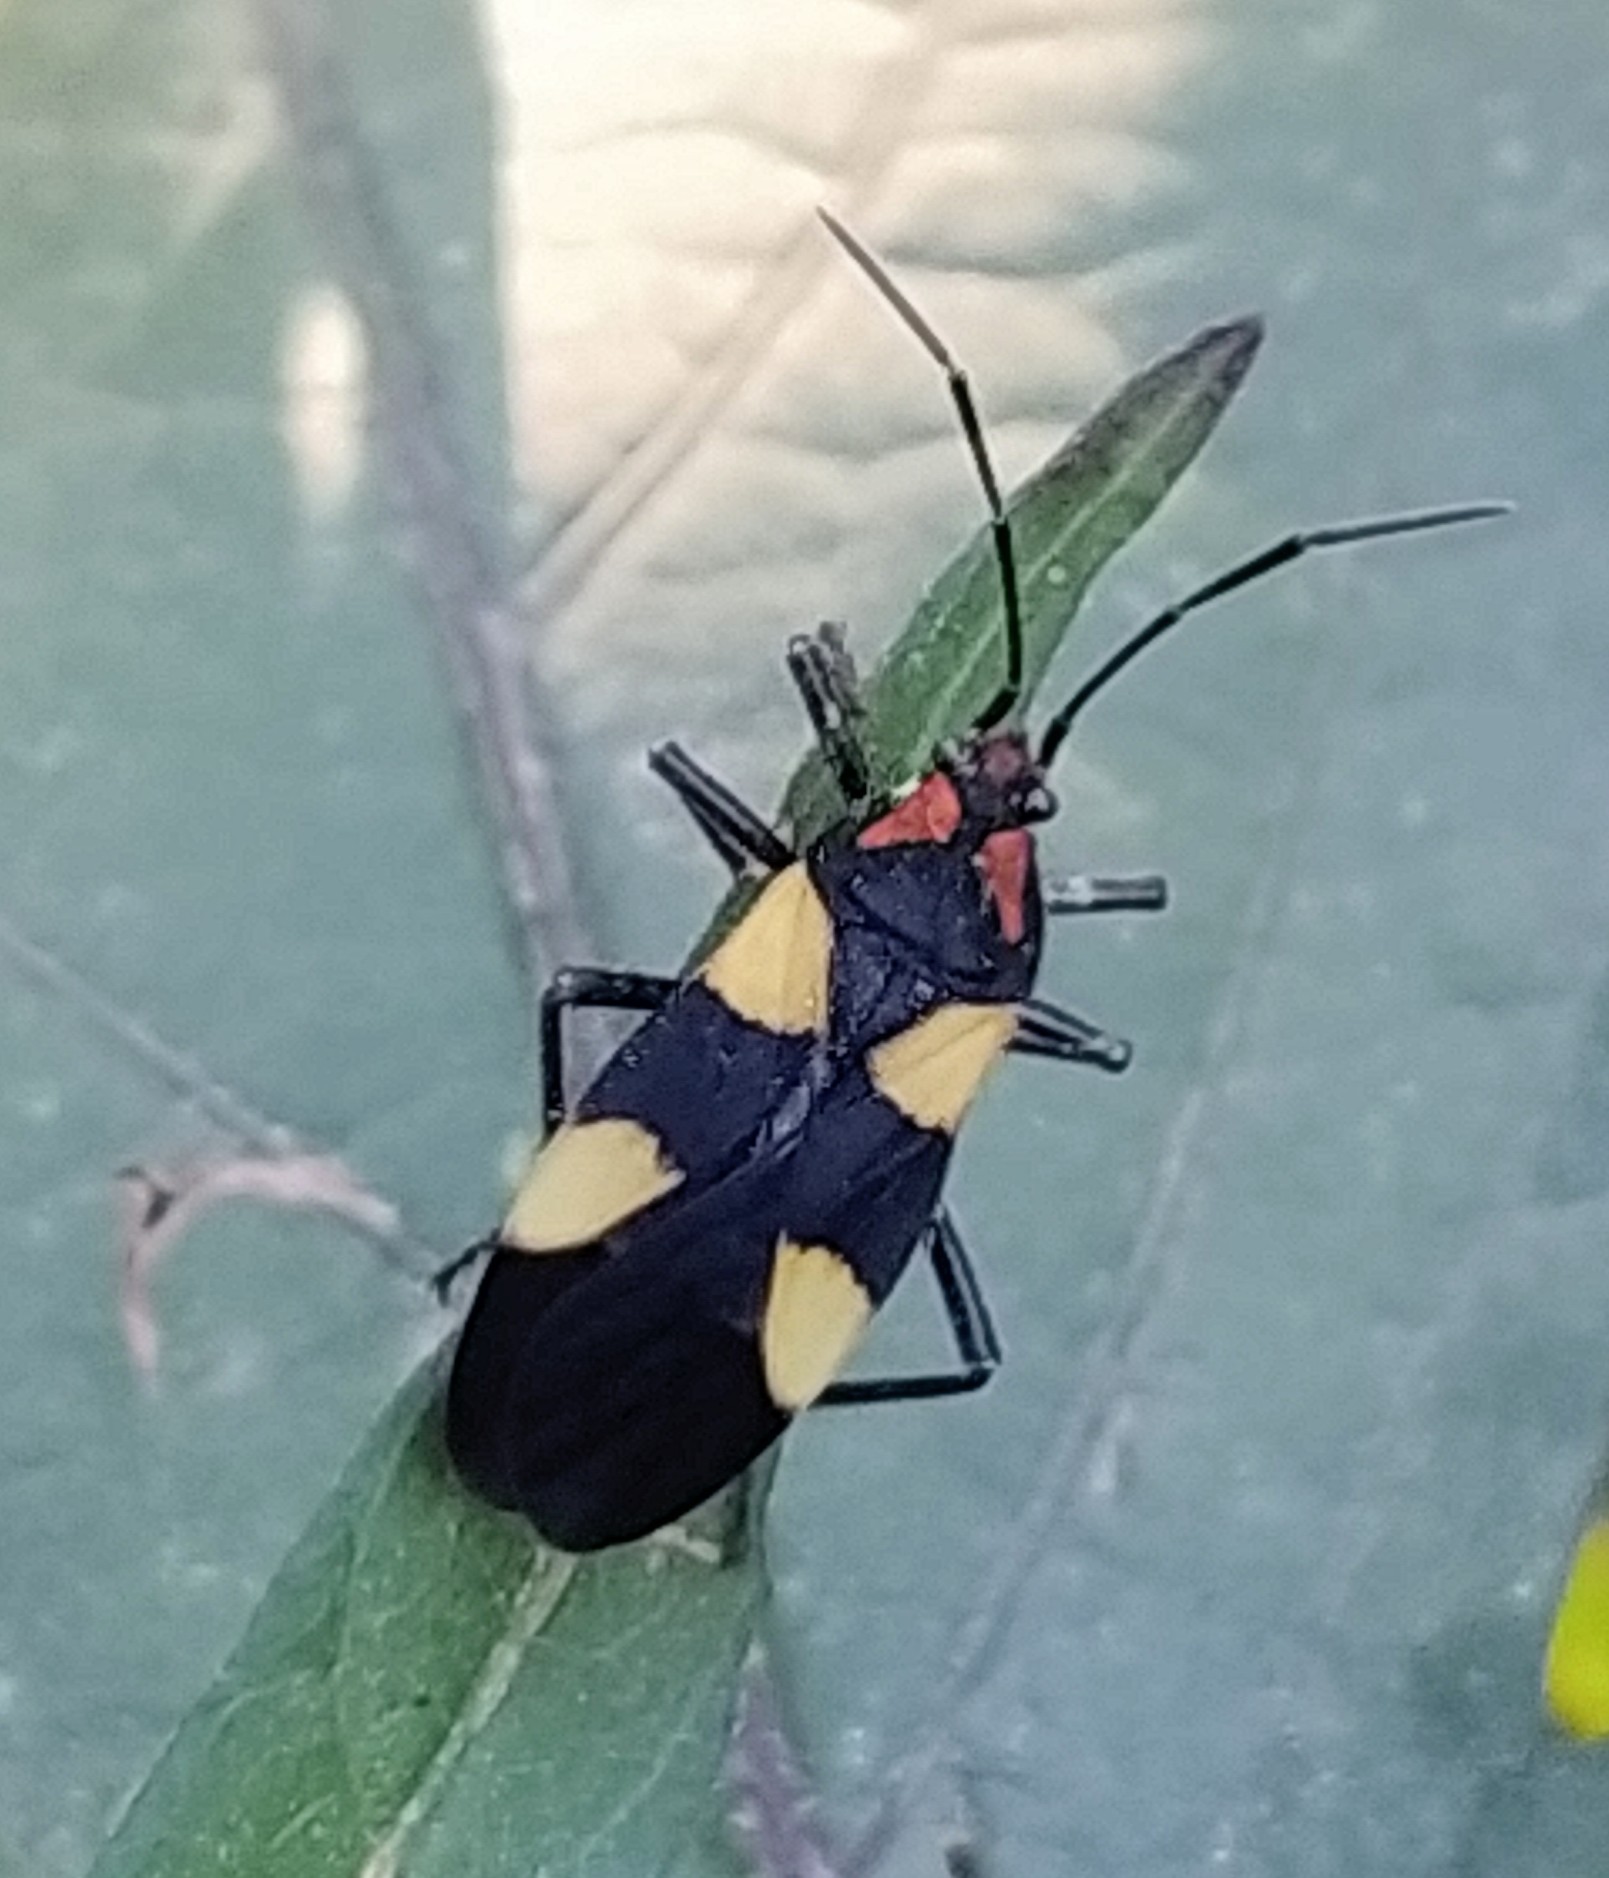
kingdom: Animalia
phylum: Arthropoda
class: Insecta
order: Hemiptera
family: Lygaeidae
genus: Oncopeltus
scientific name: Oncopeltus varicolor
